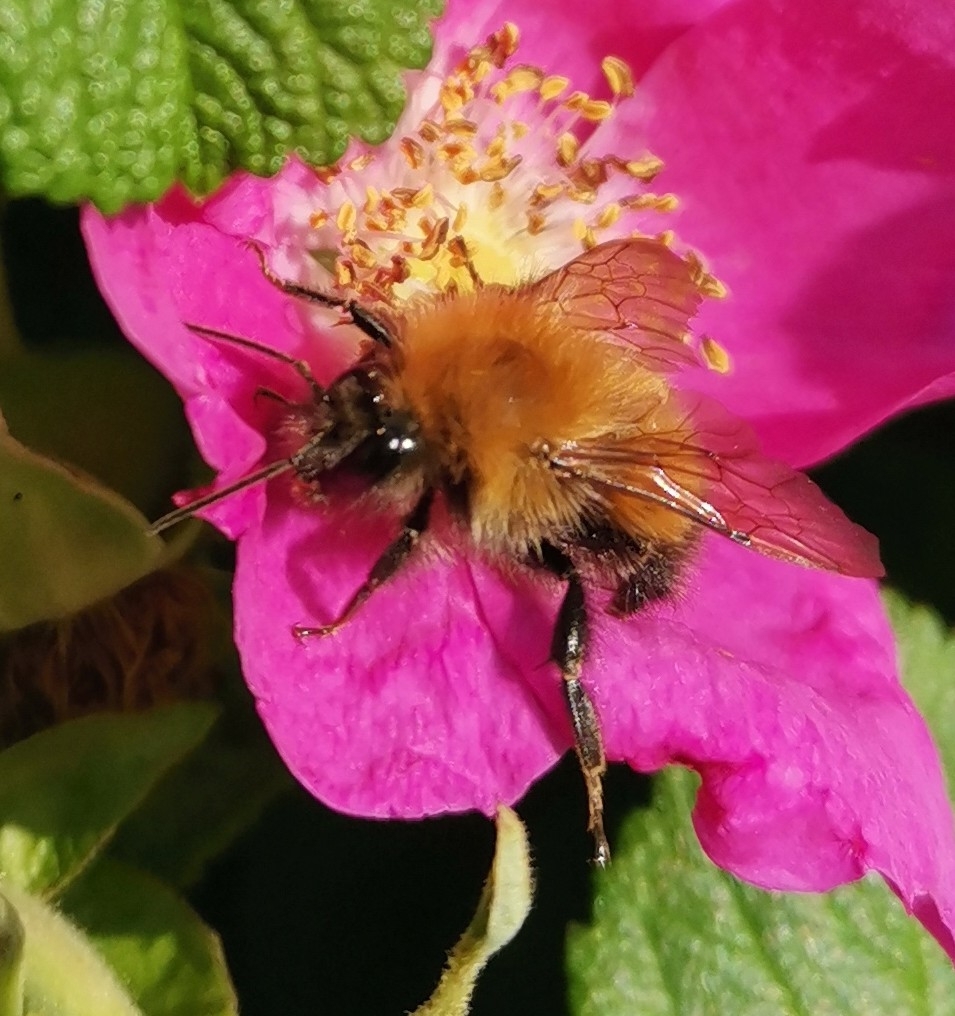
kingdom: Animalia
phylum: Arthropoda
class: Insecta
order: Hymenoptera
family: Apidae
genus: Bombus
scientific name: Bombus hypnorum
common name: New garden bumblebee
